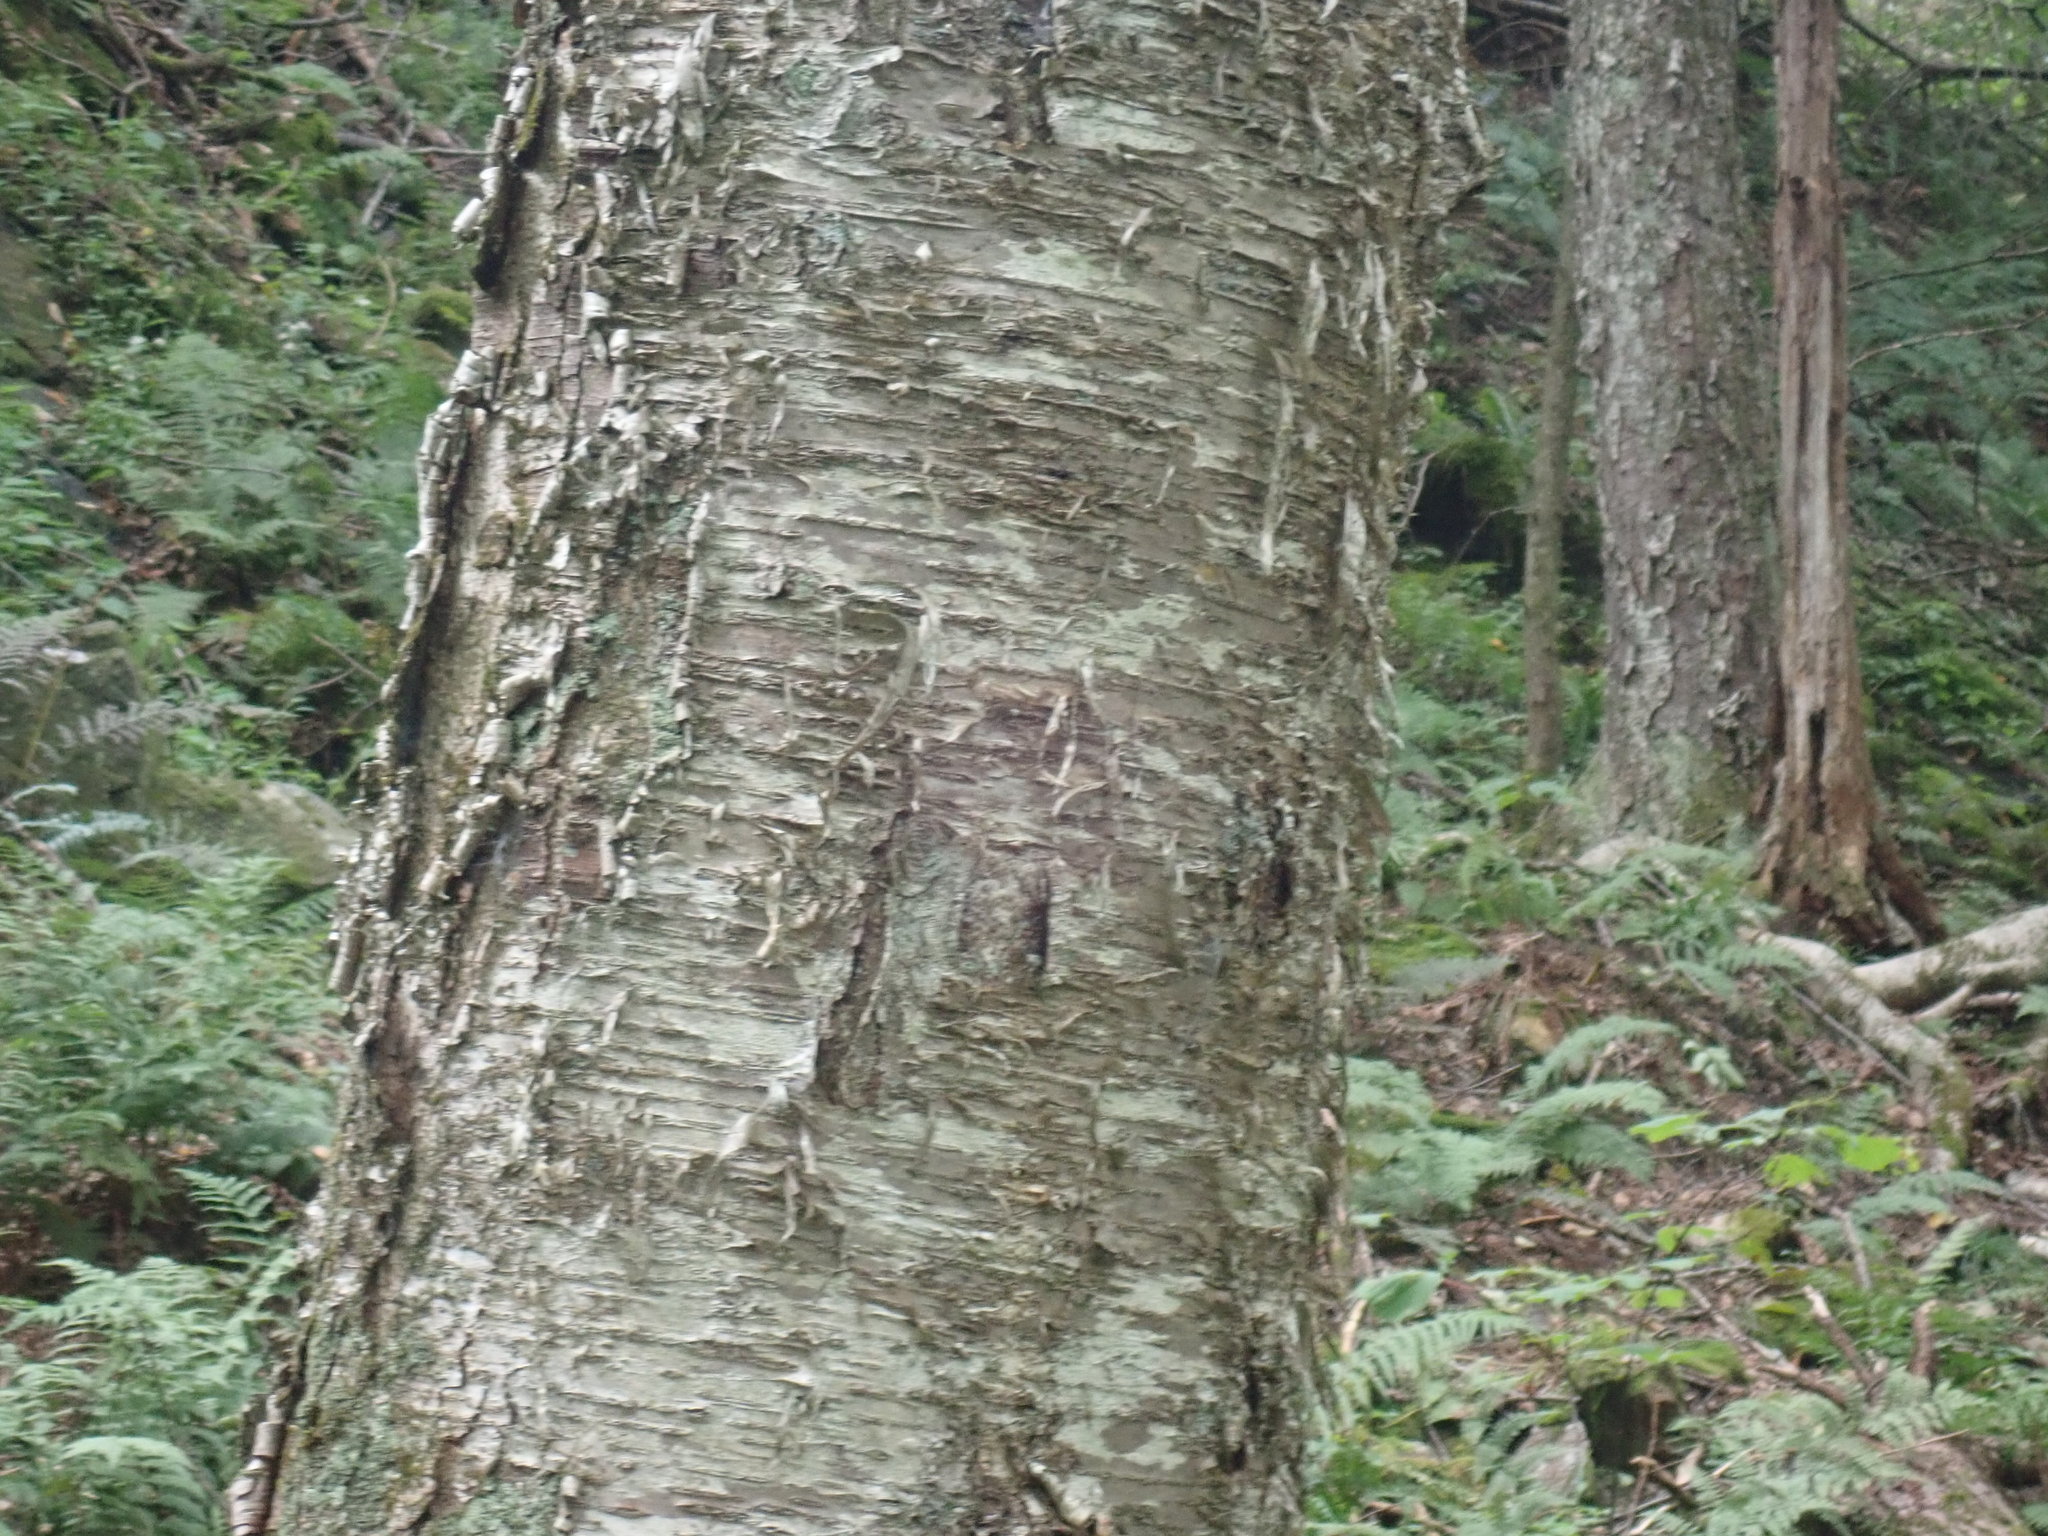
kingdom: Plantae
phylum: Tracheophyta
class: Magnoliopsida
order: Fagales
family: Betulaceae
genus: Betula
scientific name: Betula alleghaniensis
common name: Yellow birch
